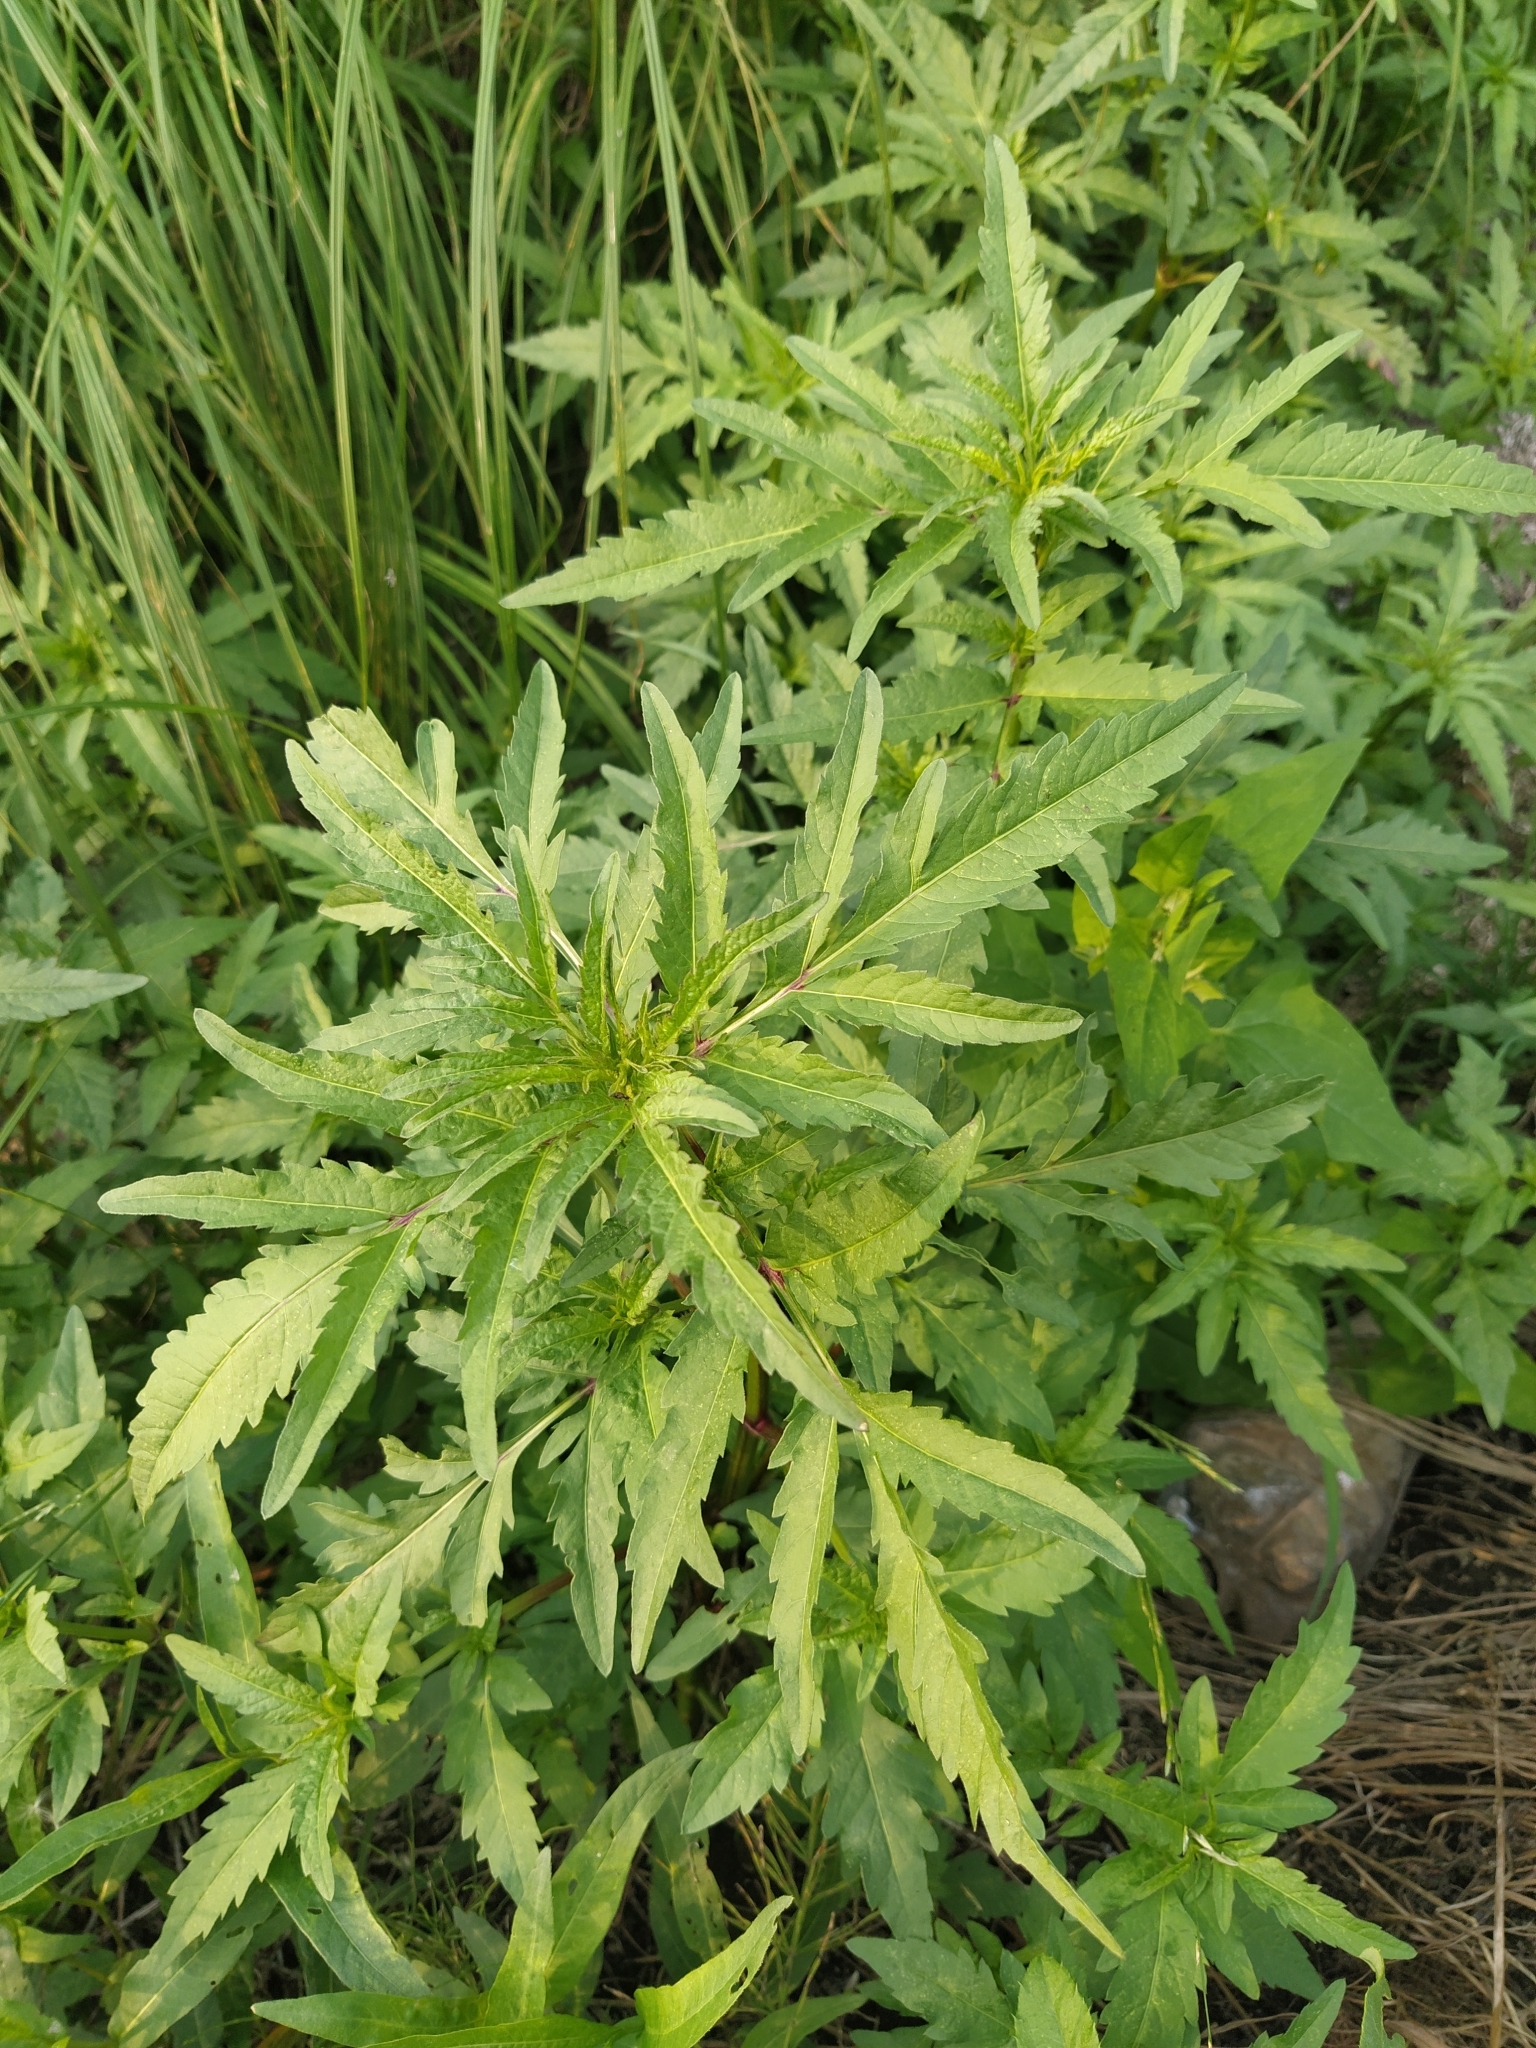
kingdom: Plantae
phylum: Tracheophyta
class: Magnoliopsida
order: Asterales
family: Asteraceae
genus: Bidens
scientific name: Bidens tripartita
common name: Trifid bur-marigold
